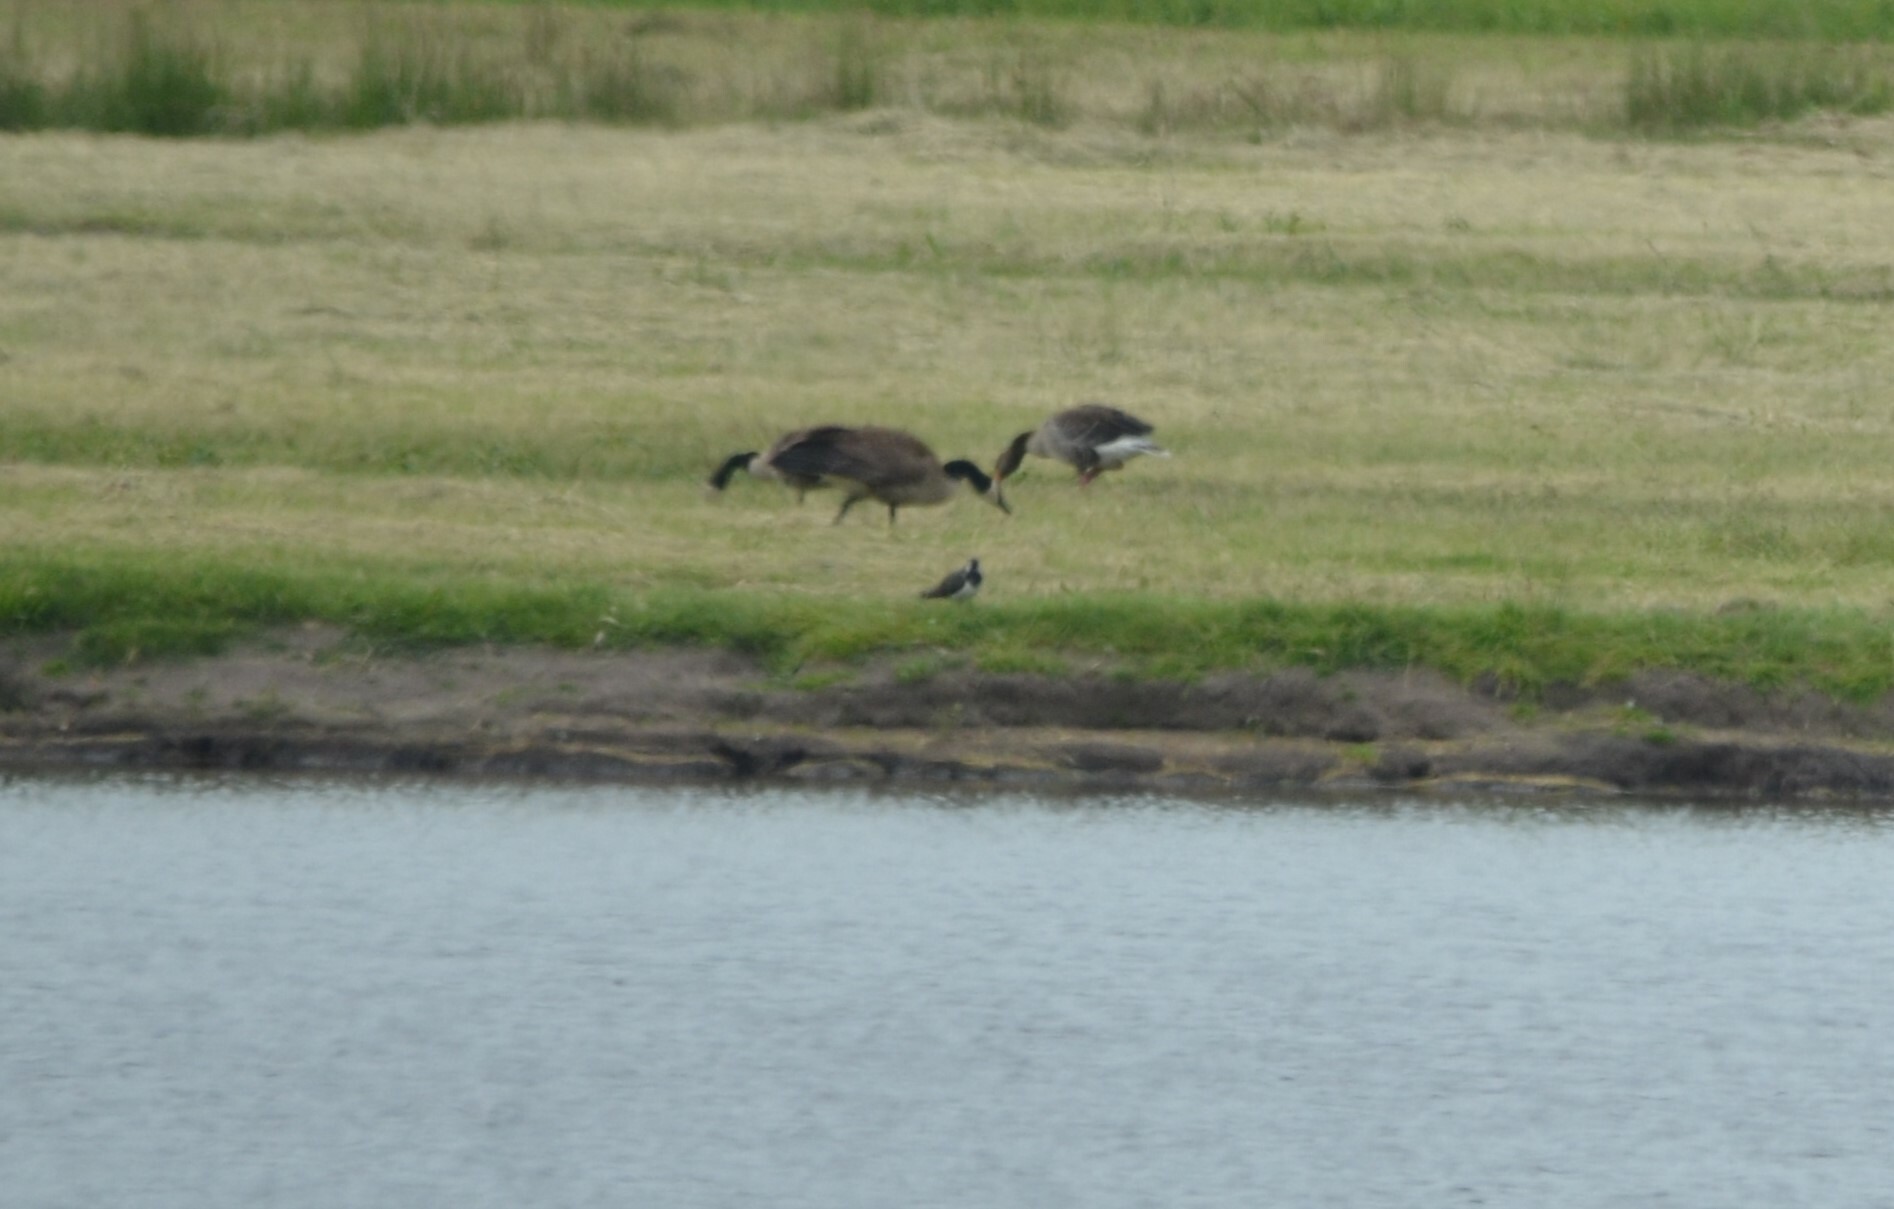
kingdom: Animalia
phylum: Chordata
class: Aves
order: Charadriiformes
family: Charadriidae
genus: Vanellus
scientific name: Vanellus vanellus
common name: Northern lapwing
